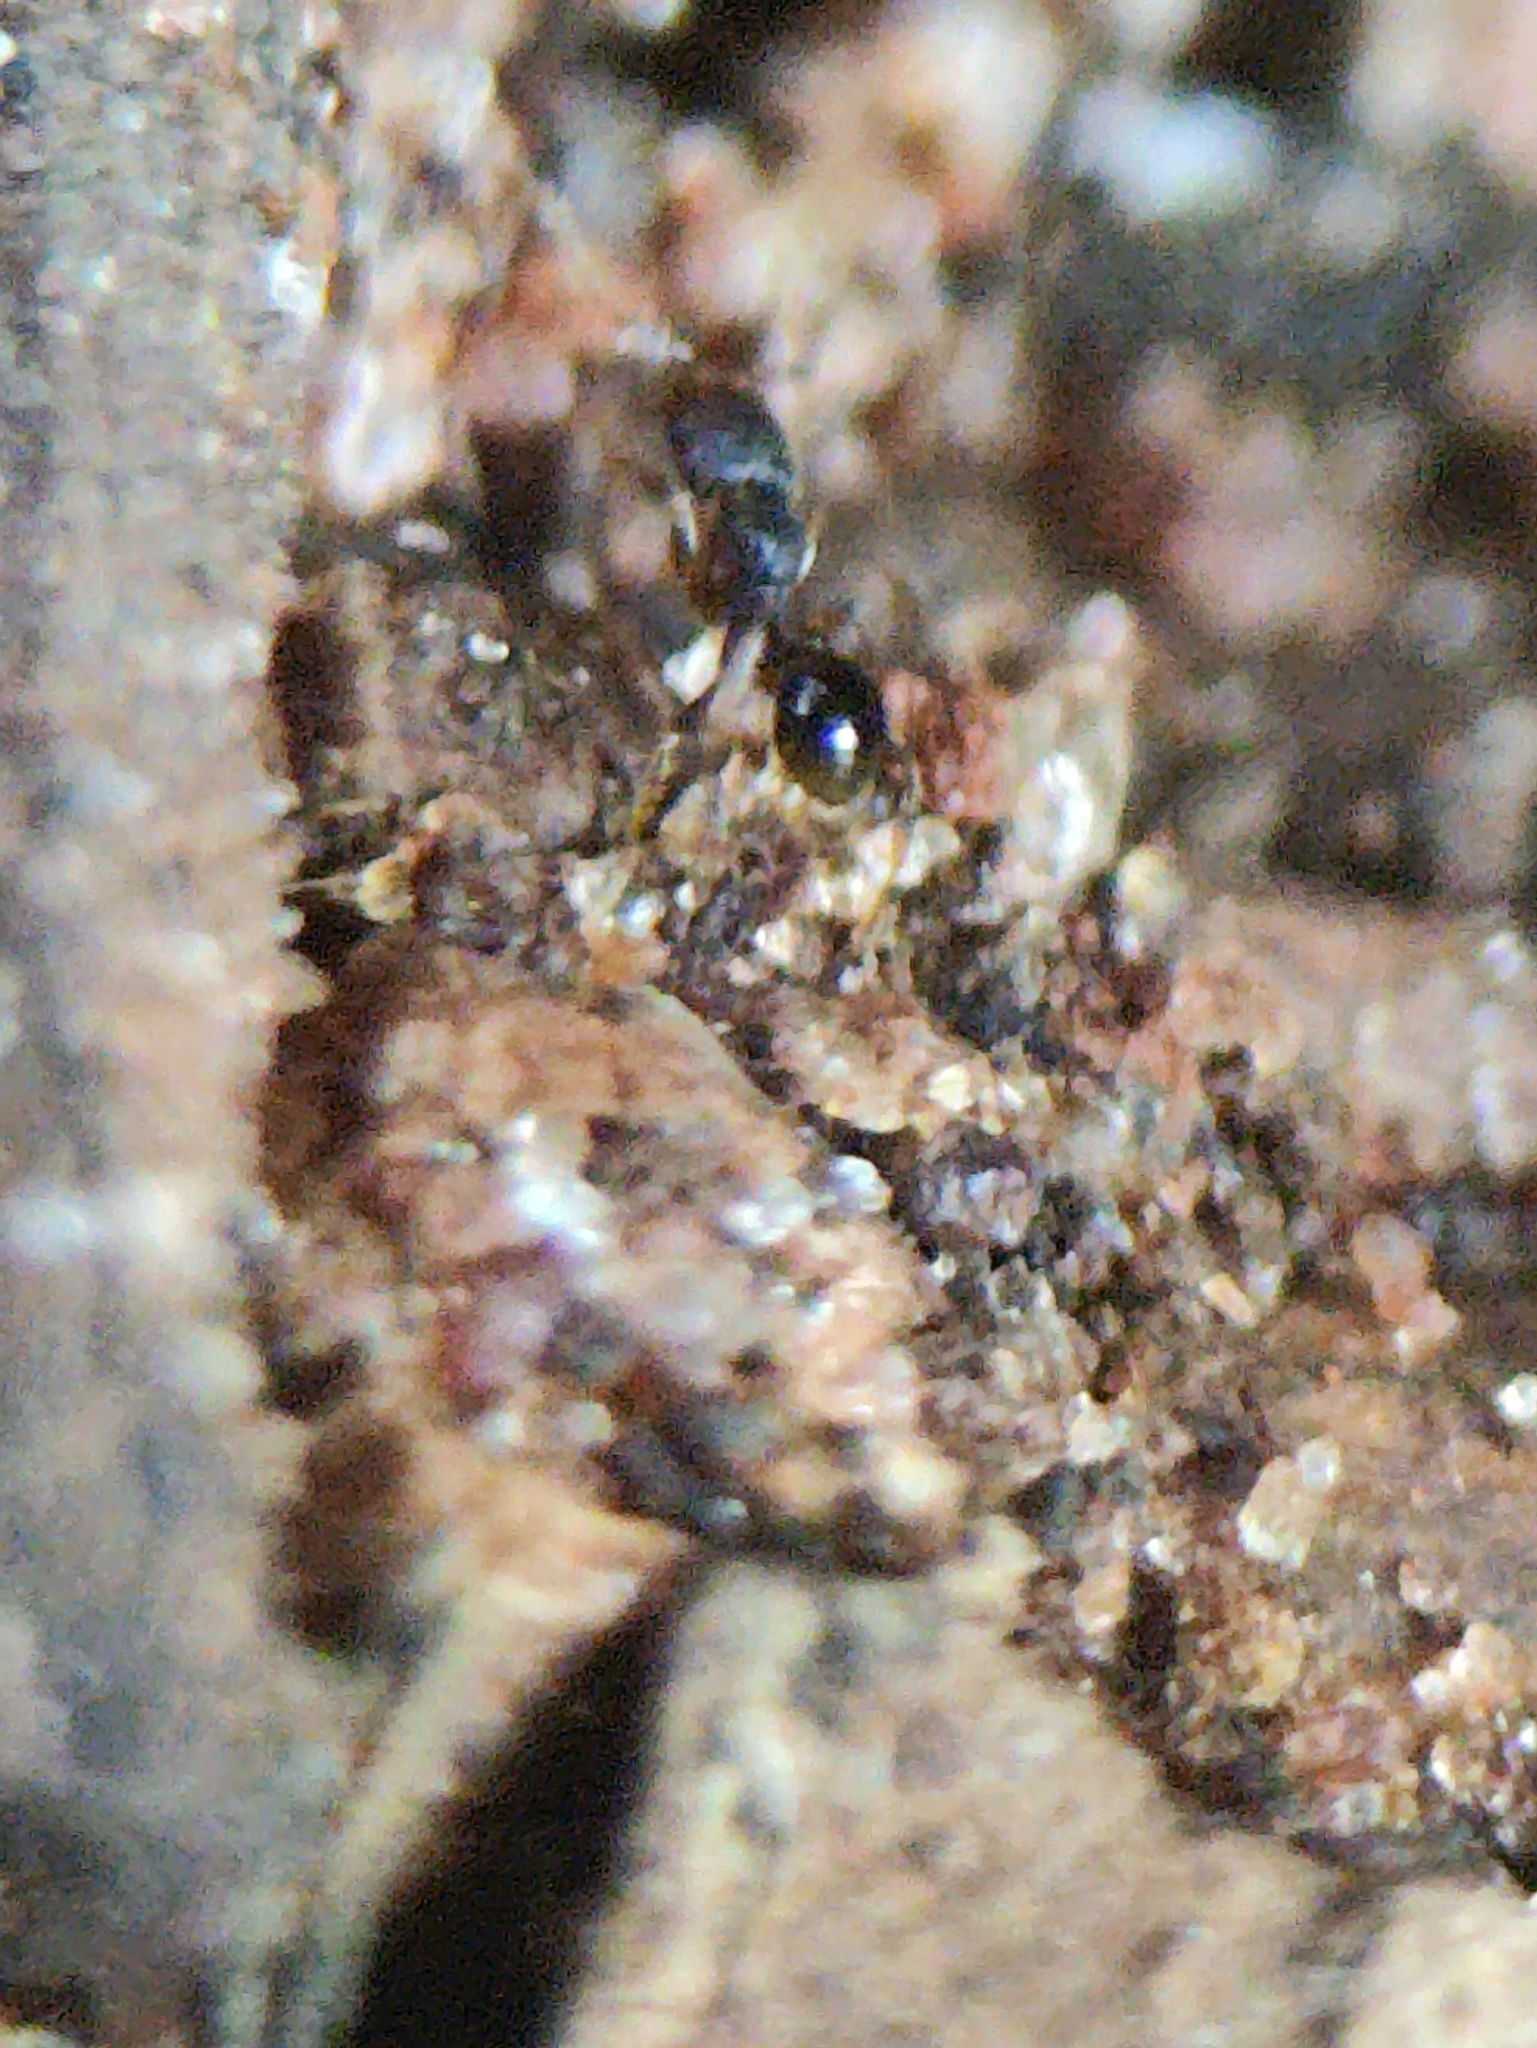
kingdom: Animalia
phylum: Arthropoda
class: Insecta
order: Hymenoptera
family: Formicidae
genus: Pheidole
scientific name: Pheidole parva
